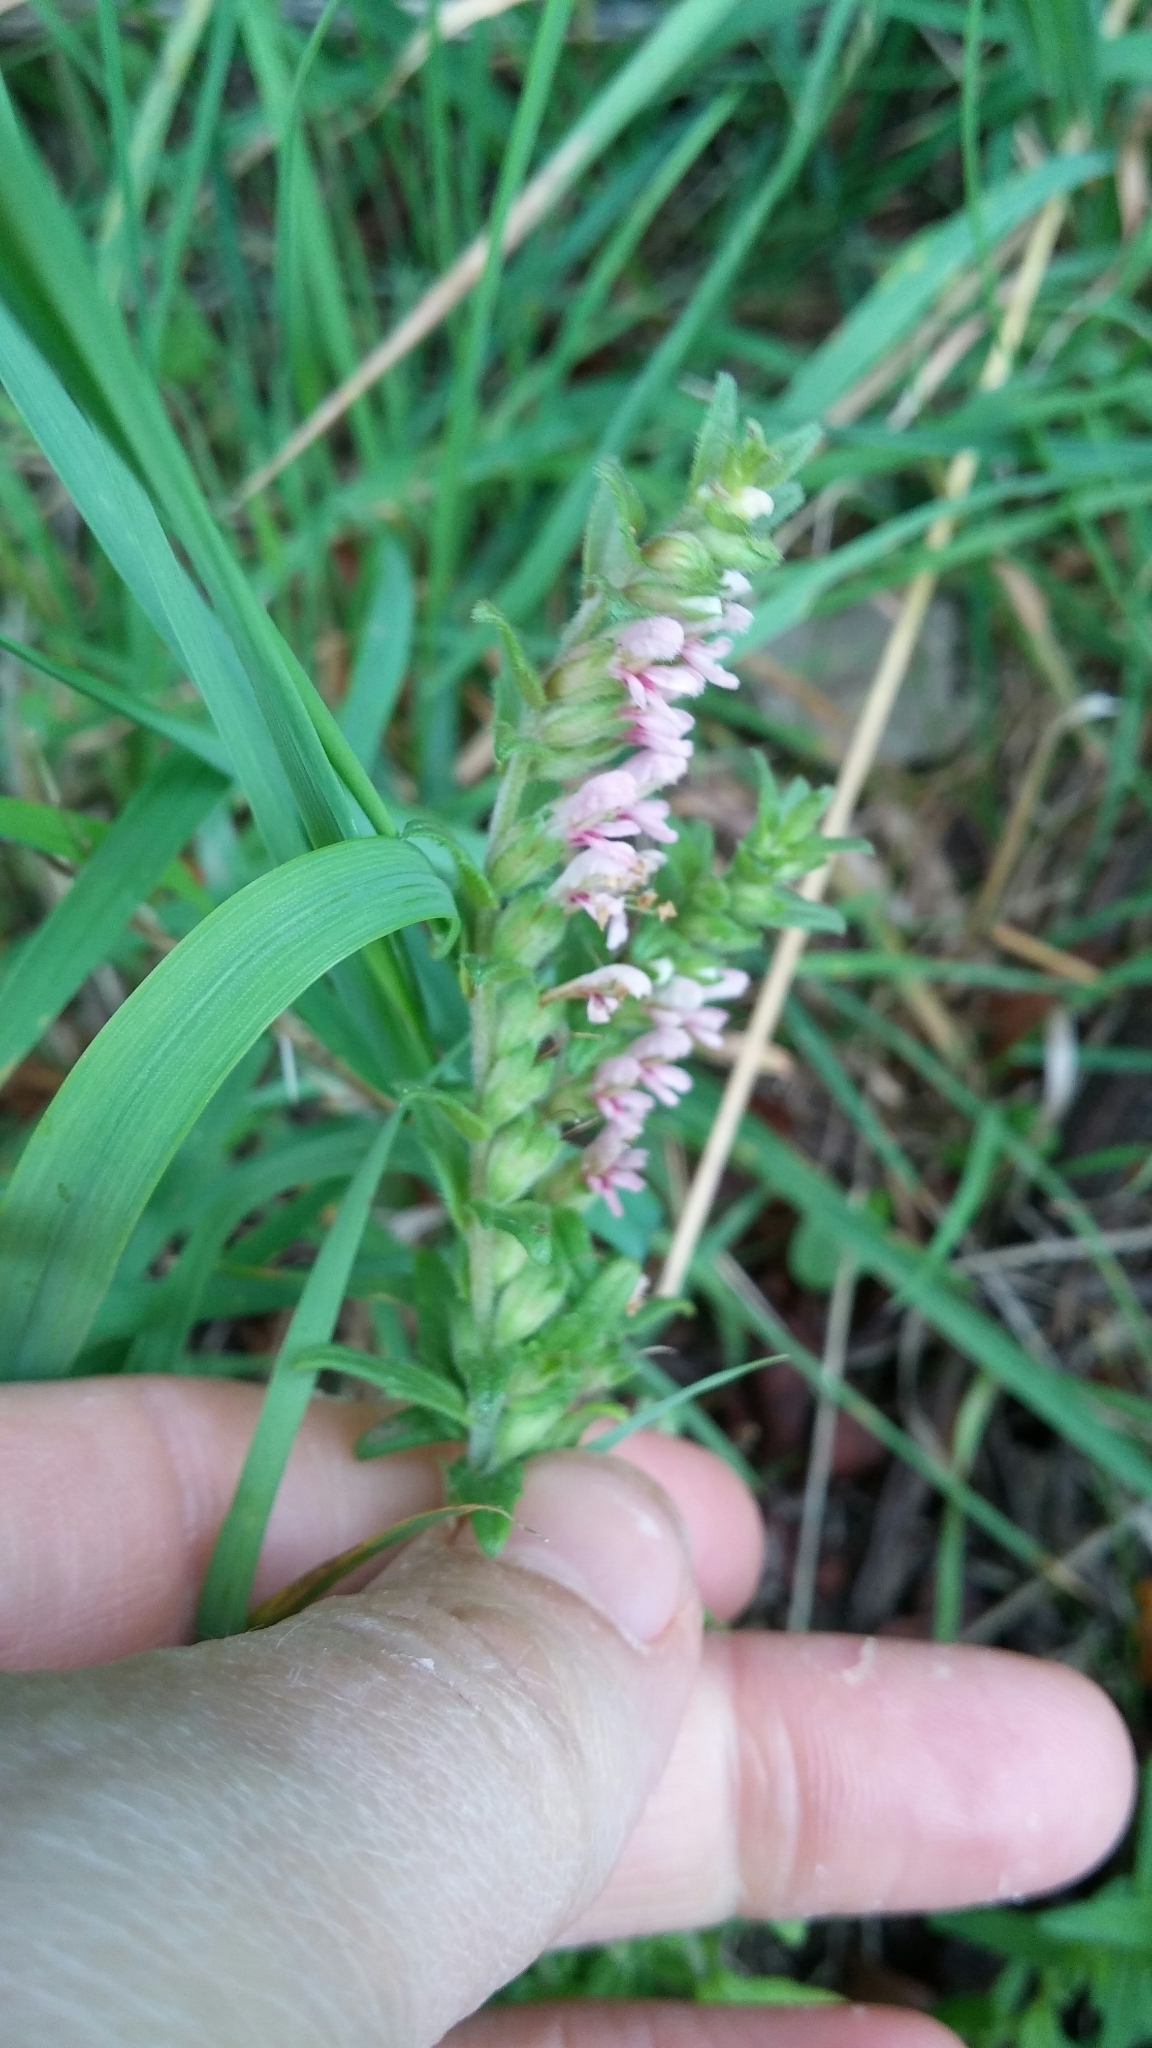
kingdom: Plantae
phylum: Tracheophyta
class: Magnoliopsida
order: Lamiales
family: Orobanchaceae
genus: Odontites
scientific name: Odontites vernus
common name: Red bartsia
